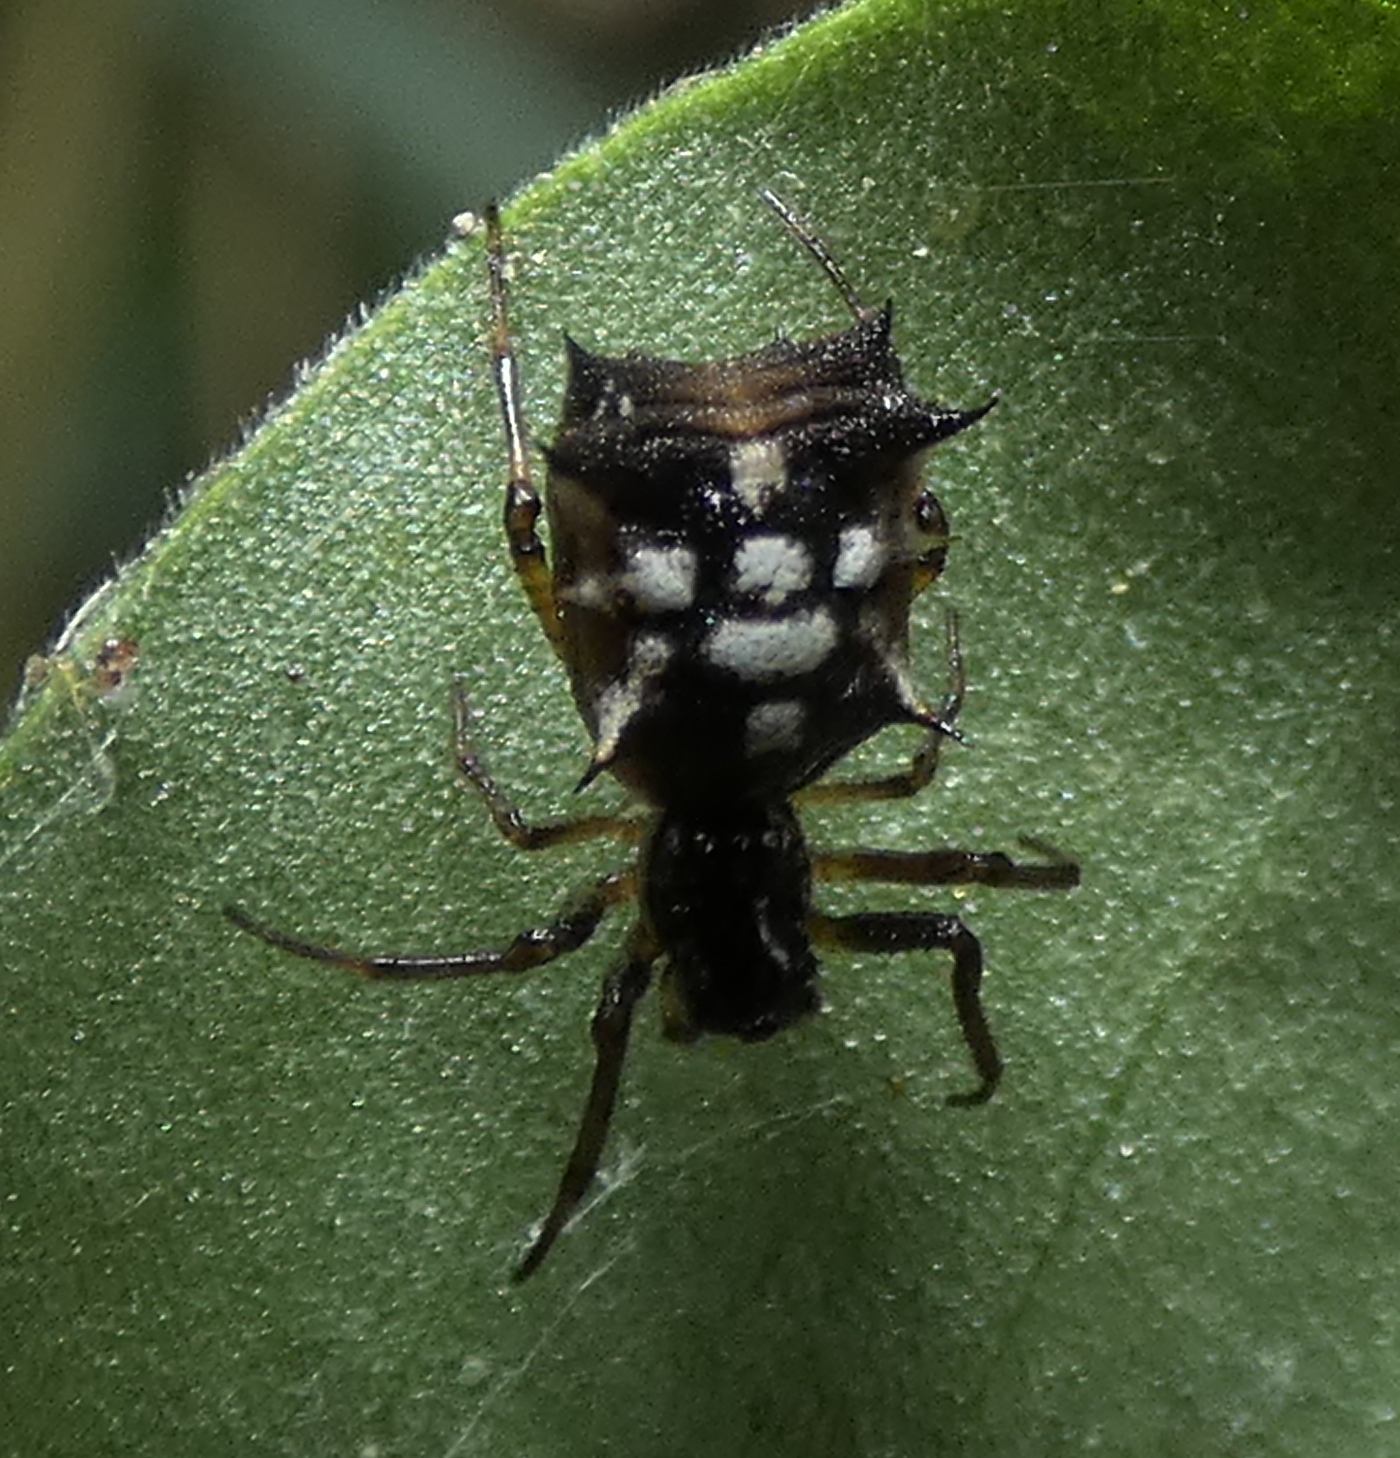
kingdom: Animalia
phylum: Arthropoda
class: Arachnida
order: Araneae
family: Araneidae
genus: Micrathena
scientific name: Micrathena picta
